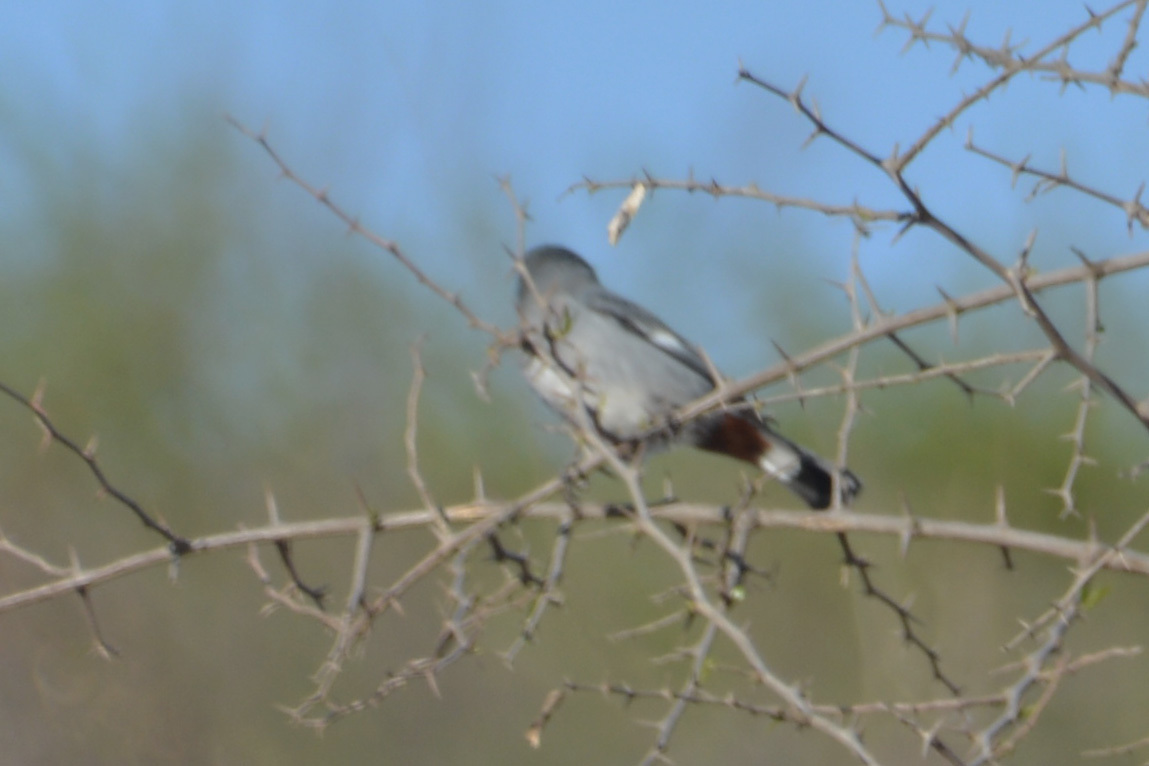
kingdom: Animalia
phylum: Chordata
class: Aves
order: Passeriformes
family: Thraupidae
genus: Catamenia
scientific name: Catamenia analis
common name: Band-tailed seedeater
